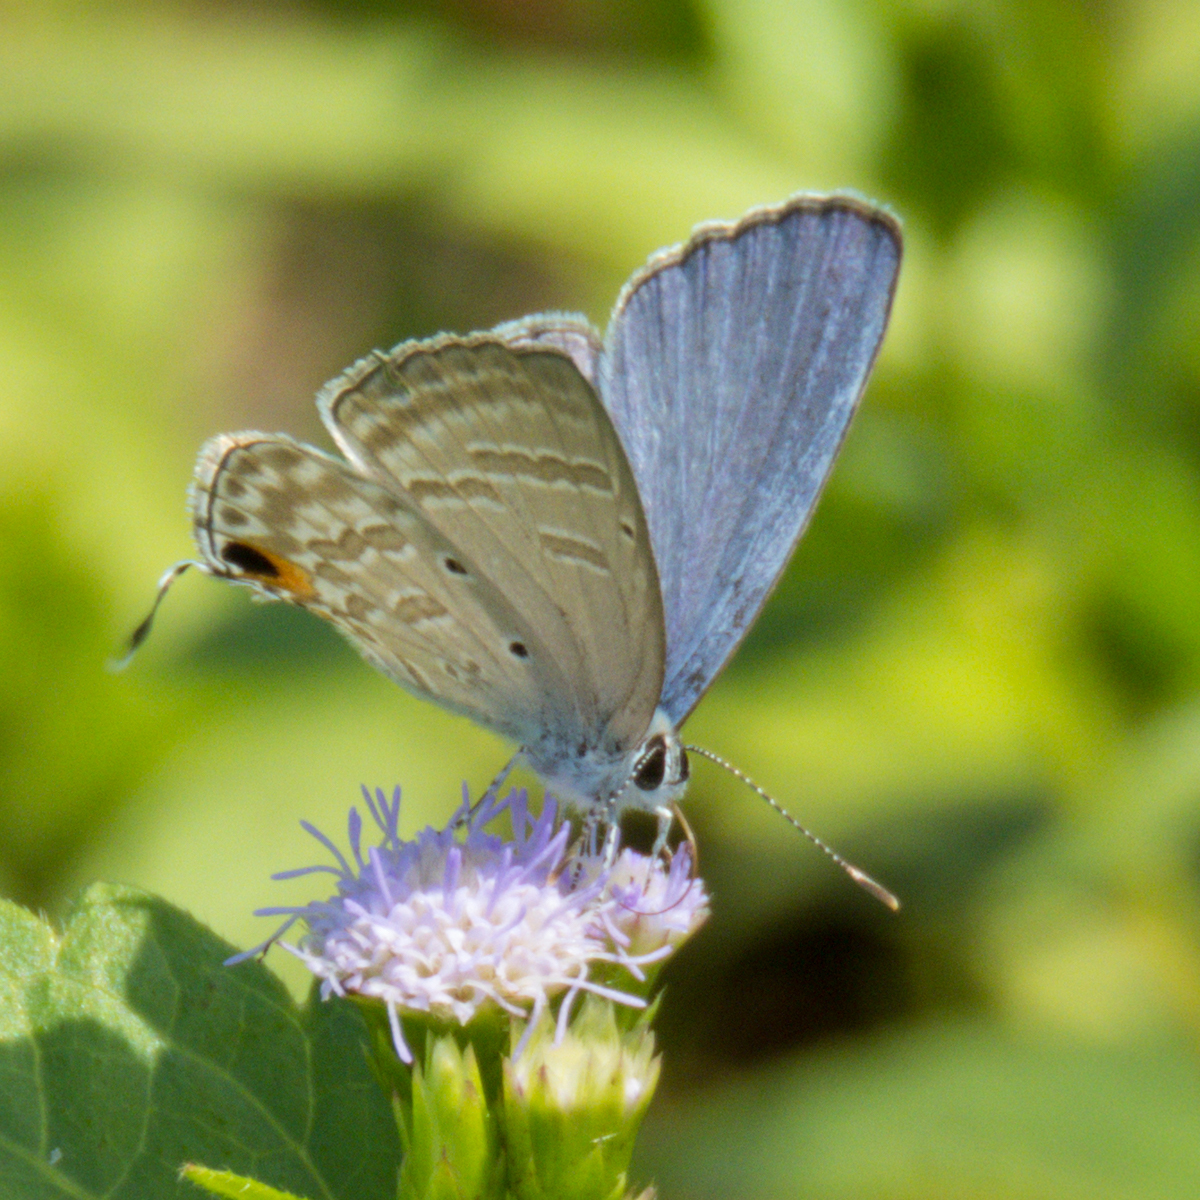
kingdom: Animalia
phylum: Arthropoda
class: Insecta
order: Lepidoptera
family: Lycaenidae
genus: Catochrysops
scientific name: Catochrysops strabo
